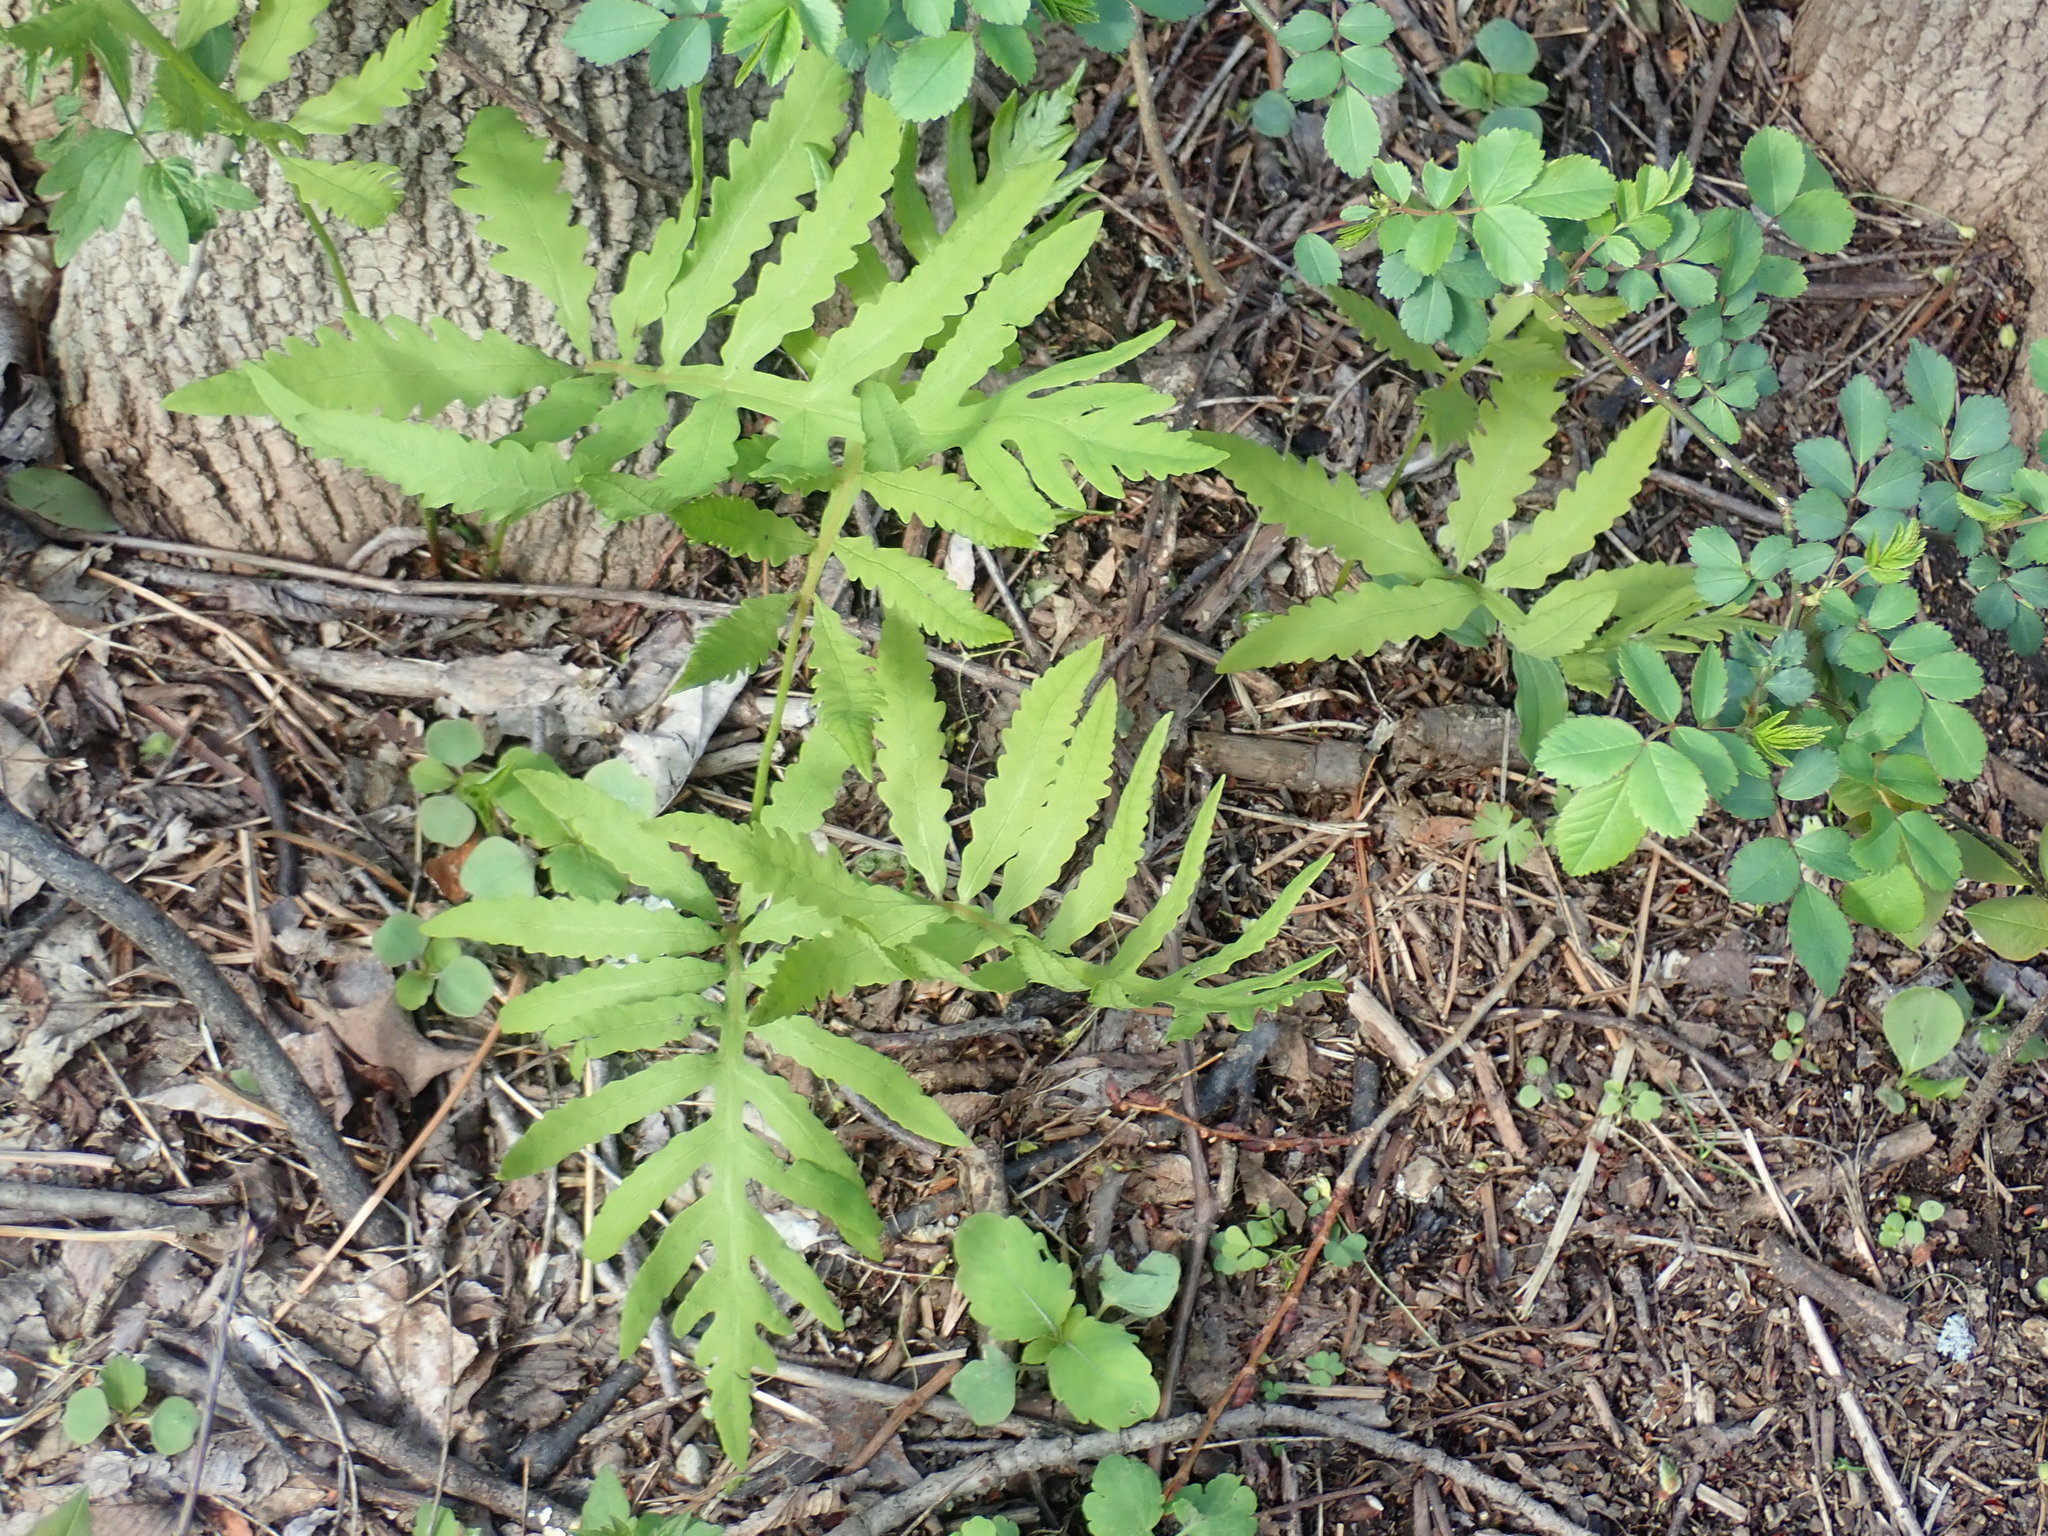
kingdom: Plantae
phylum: Tracheophyta
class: Polypodiopsida
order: Polypodiales
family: Onocleaceae
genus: Onoclea
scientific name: Onoclea sensibilis
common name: Sensitive fern
